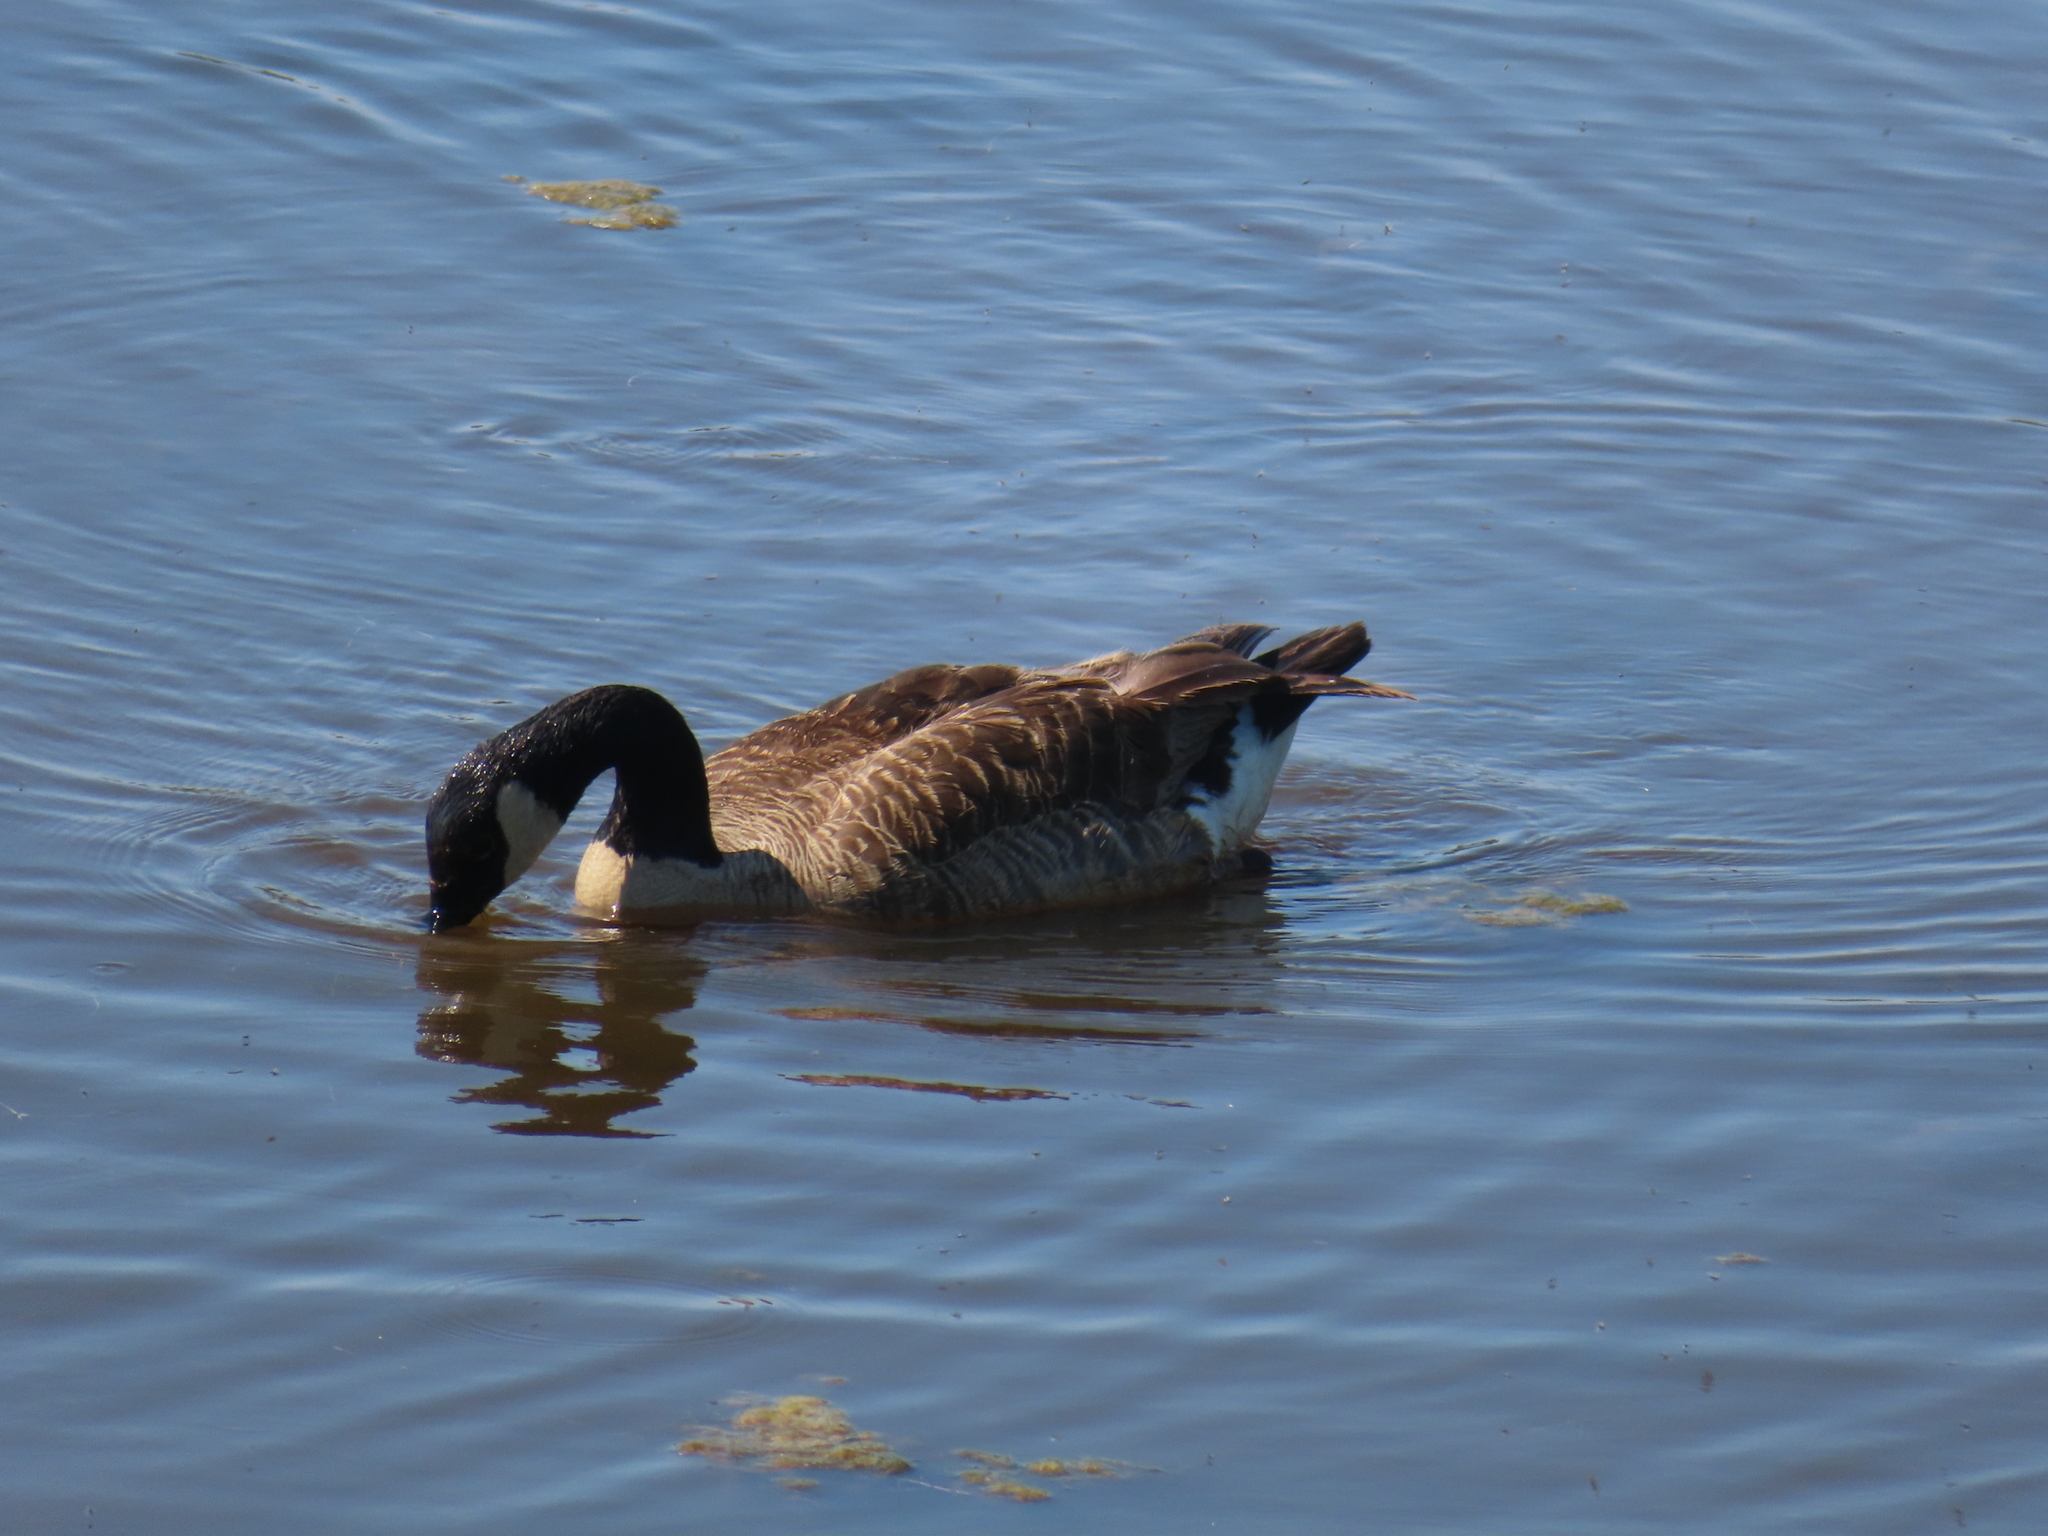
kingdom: Animalia
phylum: Chordata
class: Aves
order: Anseriformes
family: Anatidae
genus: Branta
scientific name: Branta canadensis
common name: Canada goose
